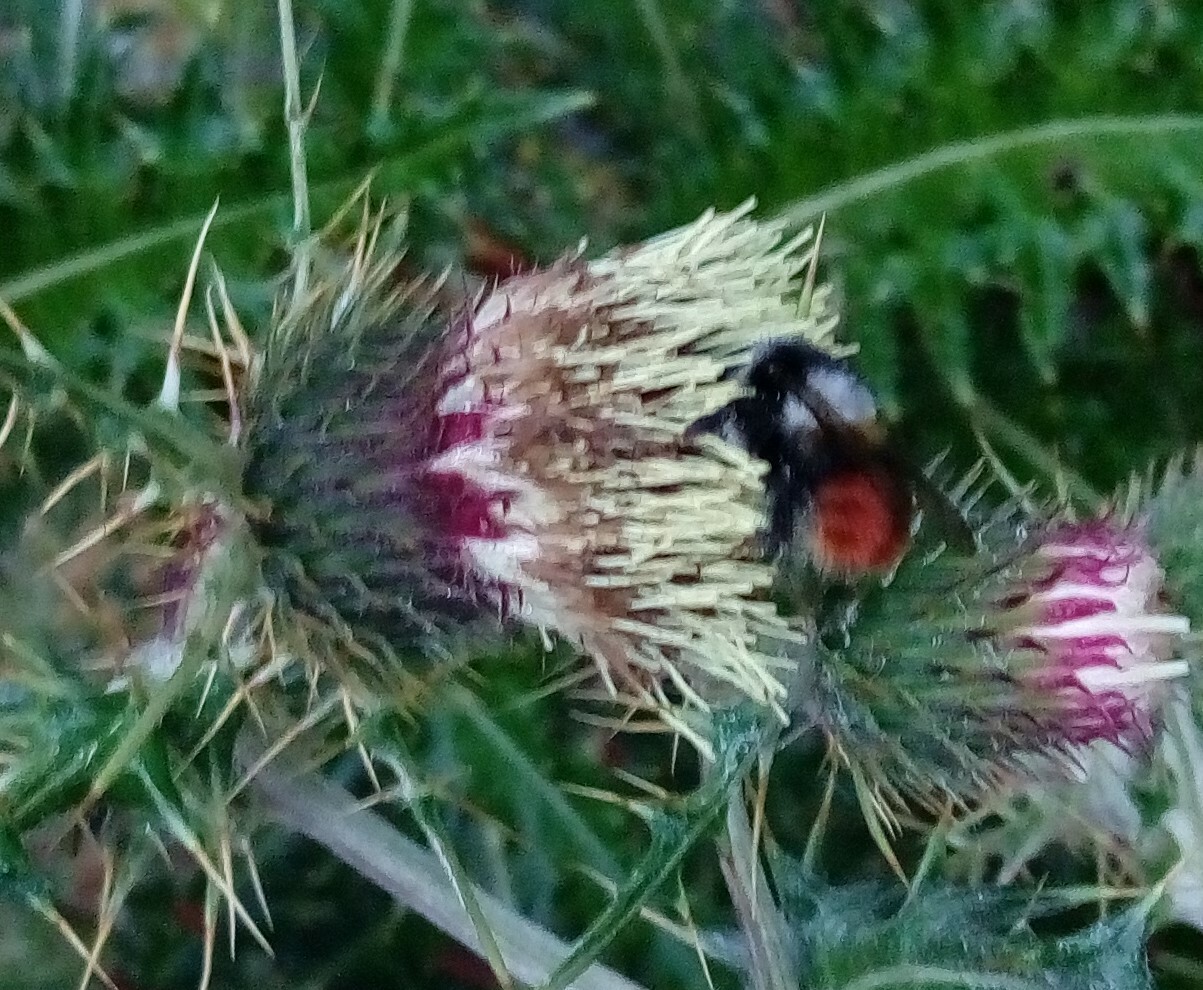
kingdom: Animalia
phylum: Arthropoda
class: Insecta
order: Hymenoptera
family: Apidae
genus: Bombus
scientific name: Bombus formosellus
